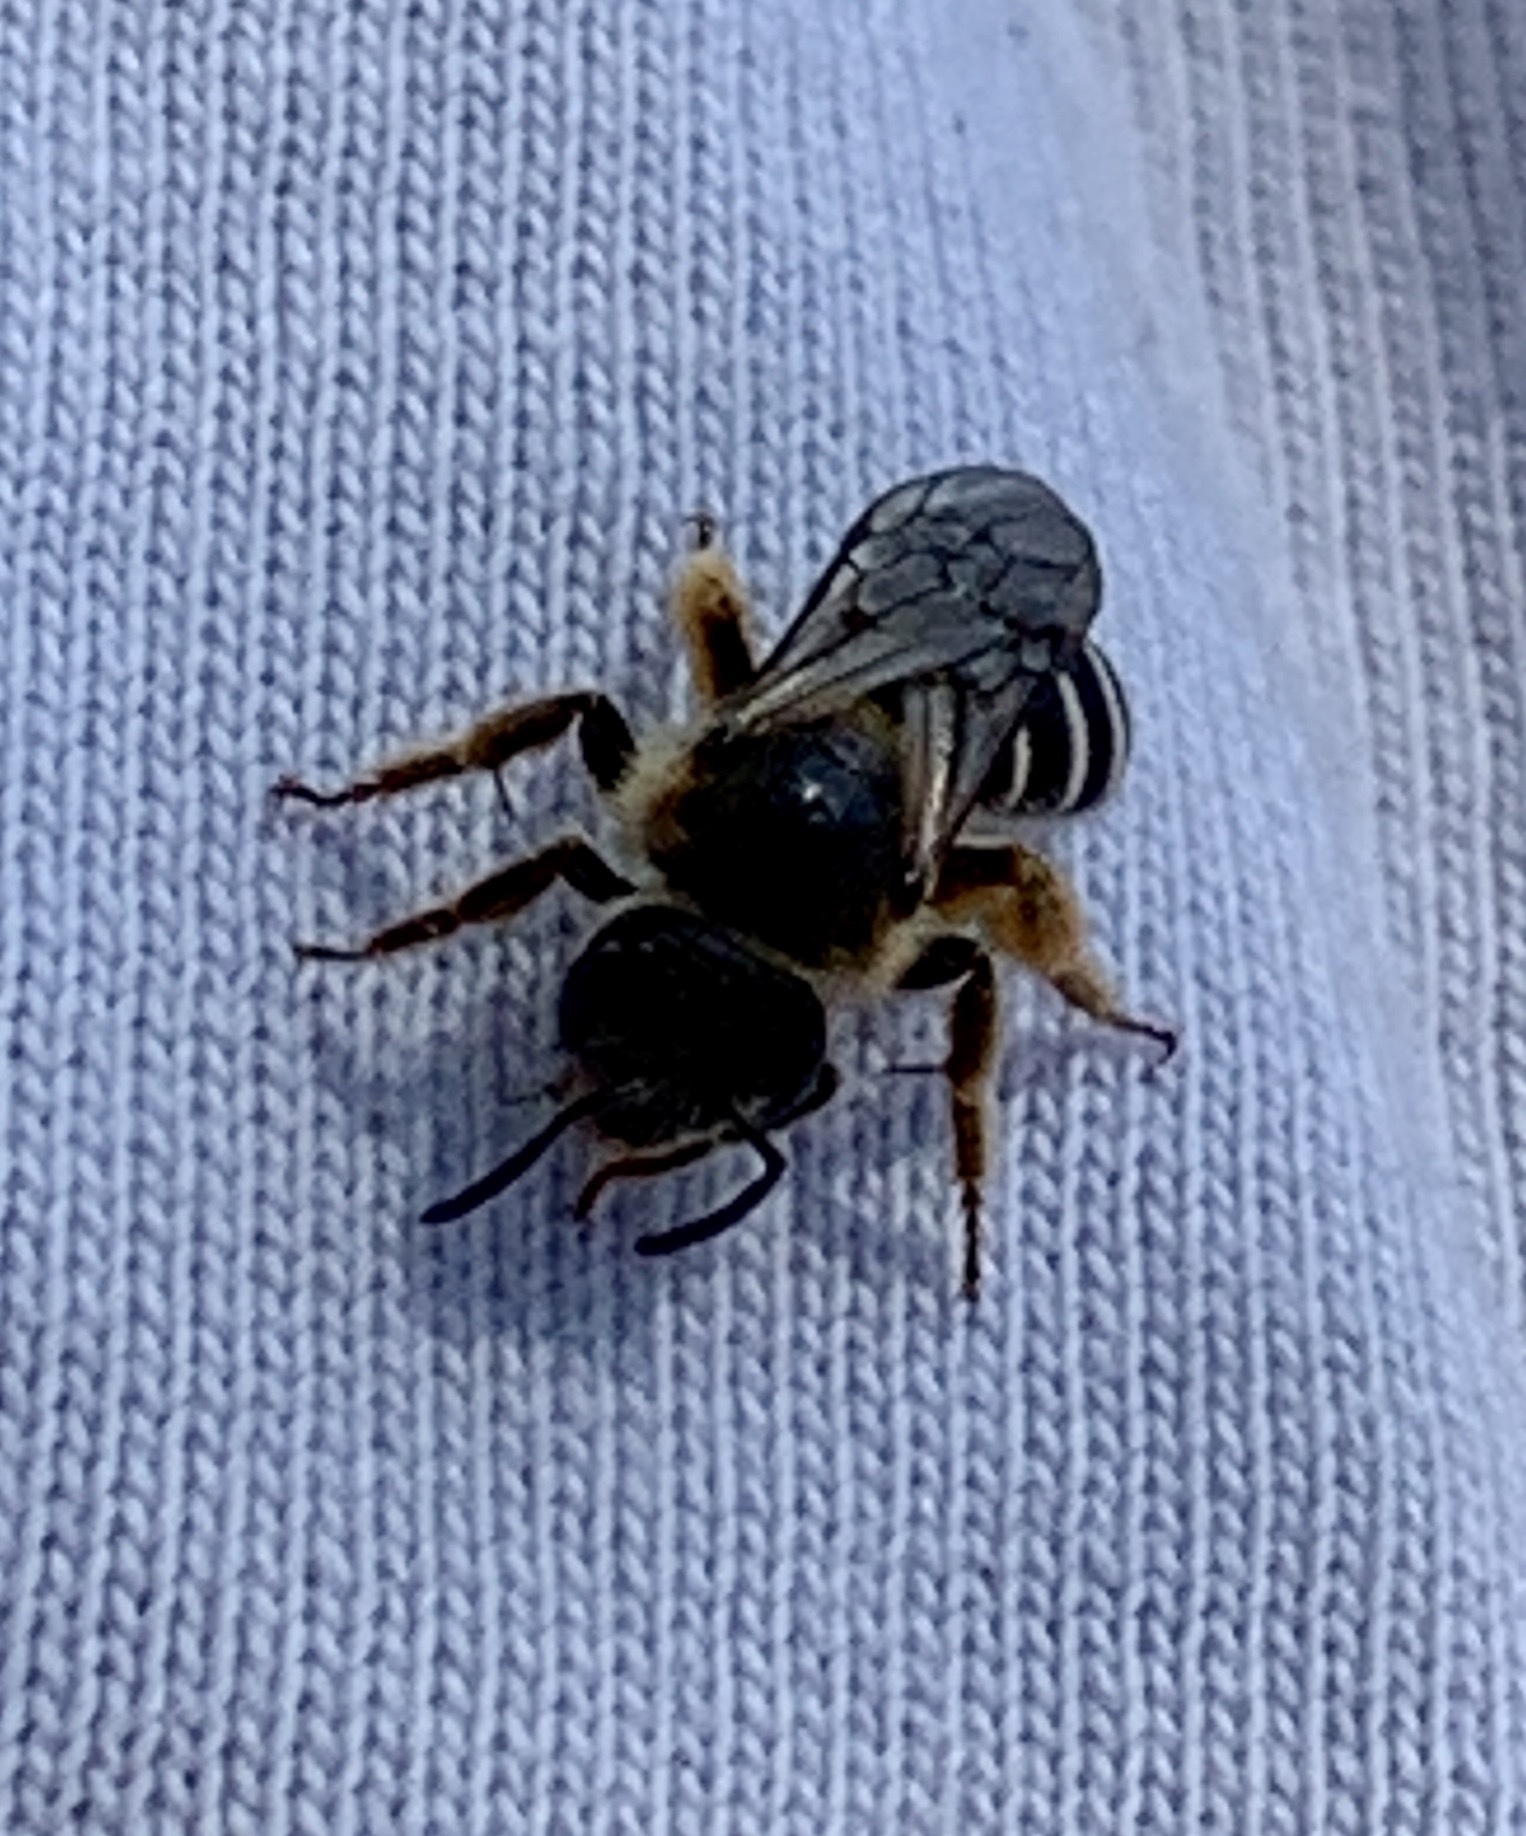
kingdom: Animalia
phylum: Arthropoda
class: Insecta
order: Hymenoptera
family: Halictidae
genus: Halictus
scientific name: Halictus rubicundus
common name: Orange-legged furrow bee
